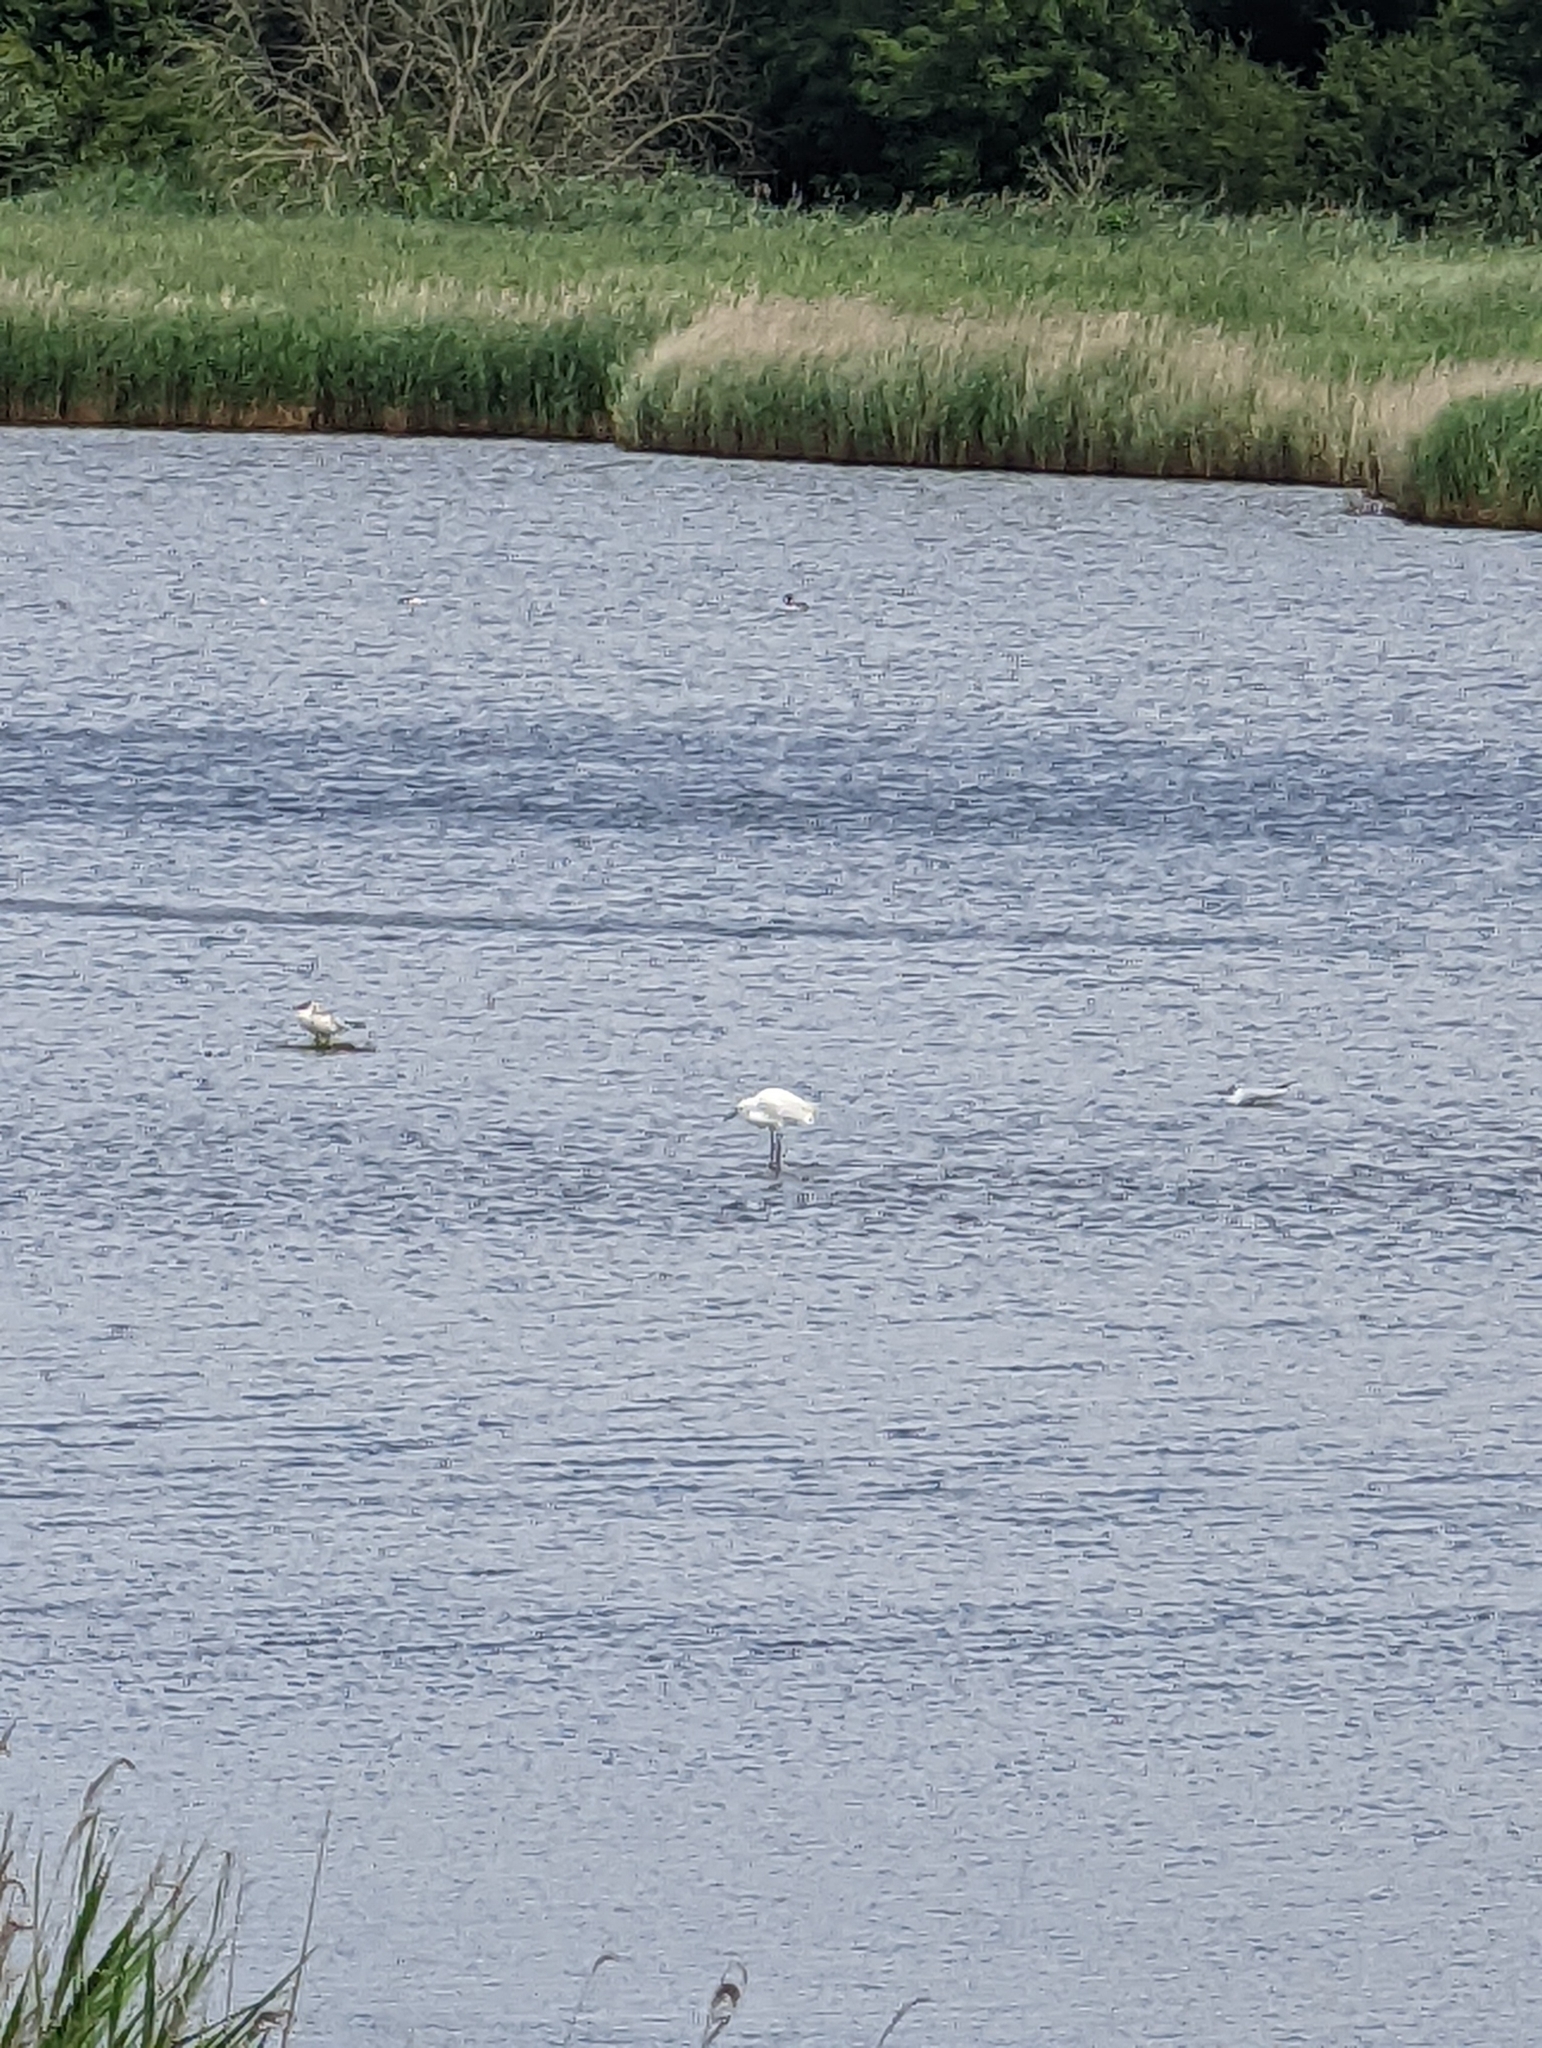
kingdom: Animalia
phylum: Chordata
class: Aves
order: Pelecaniformes
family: Ardeidae
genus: Egretta
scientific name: Egretta garzetta
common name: Little egret
